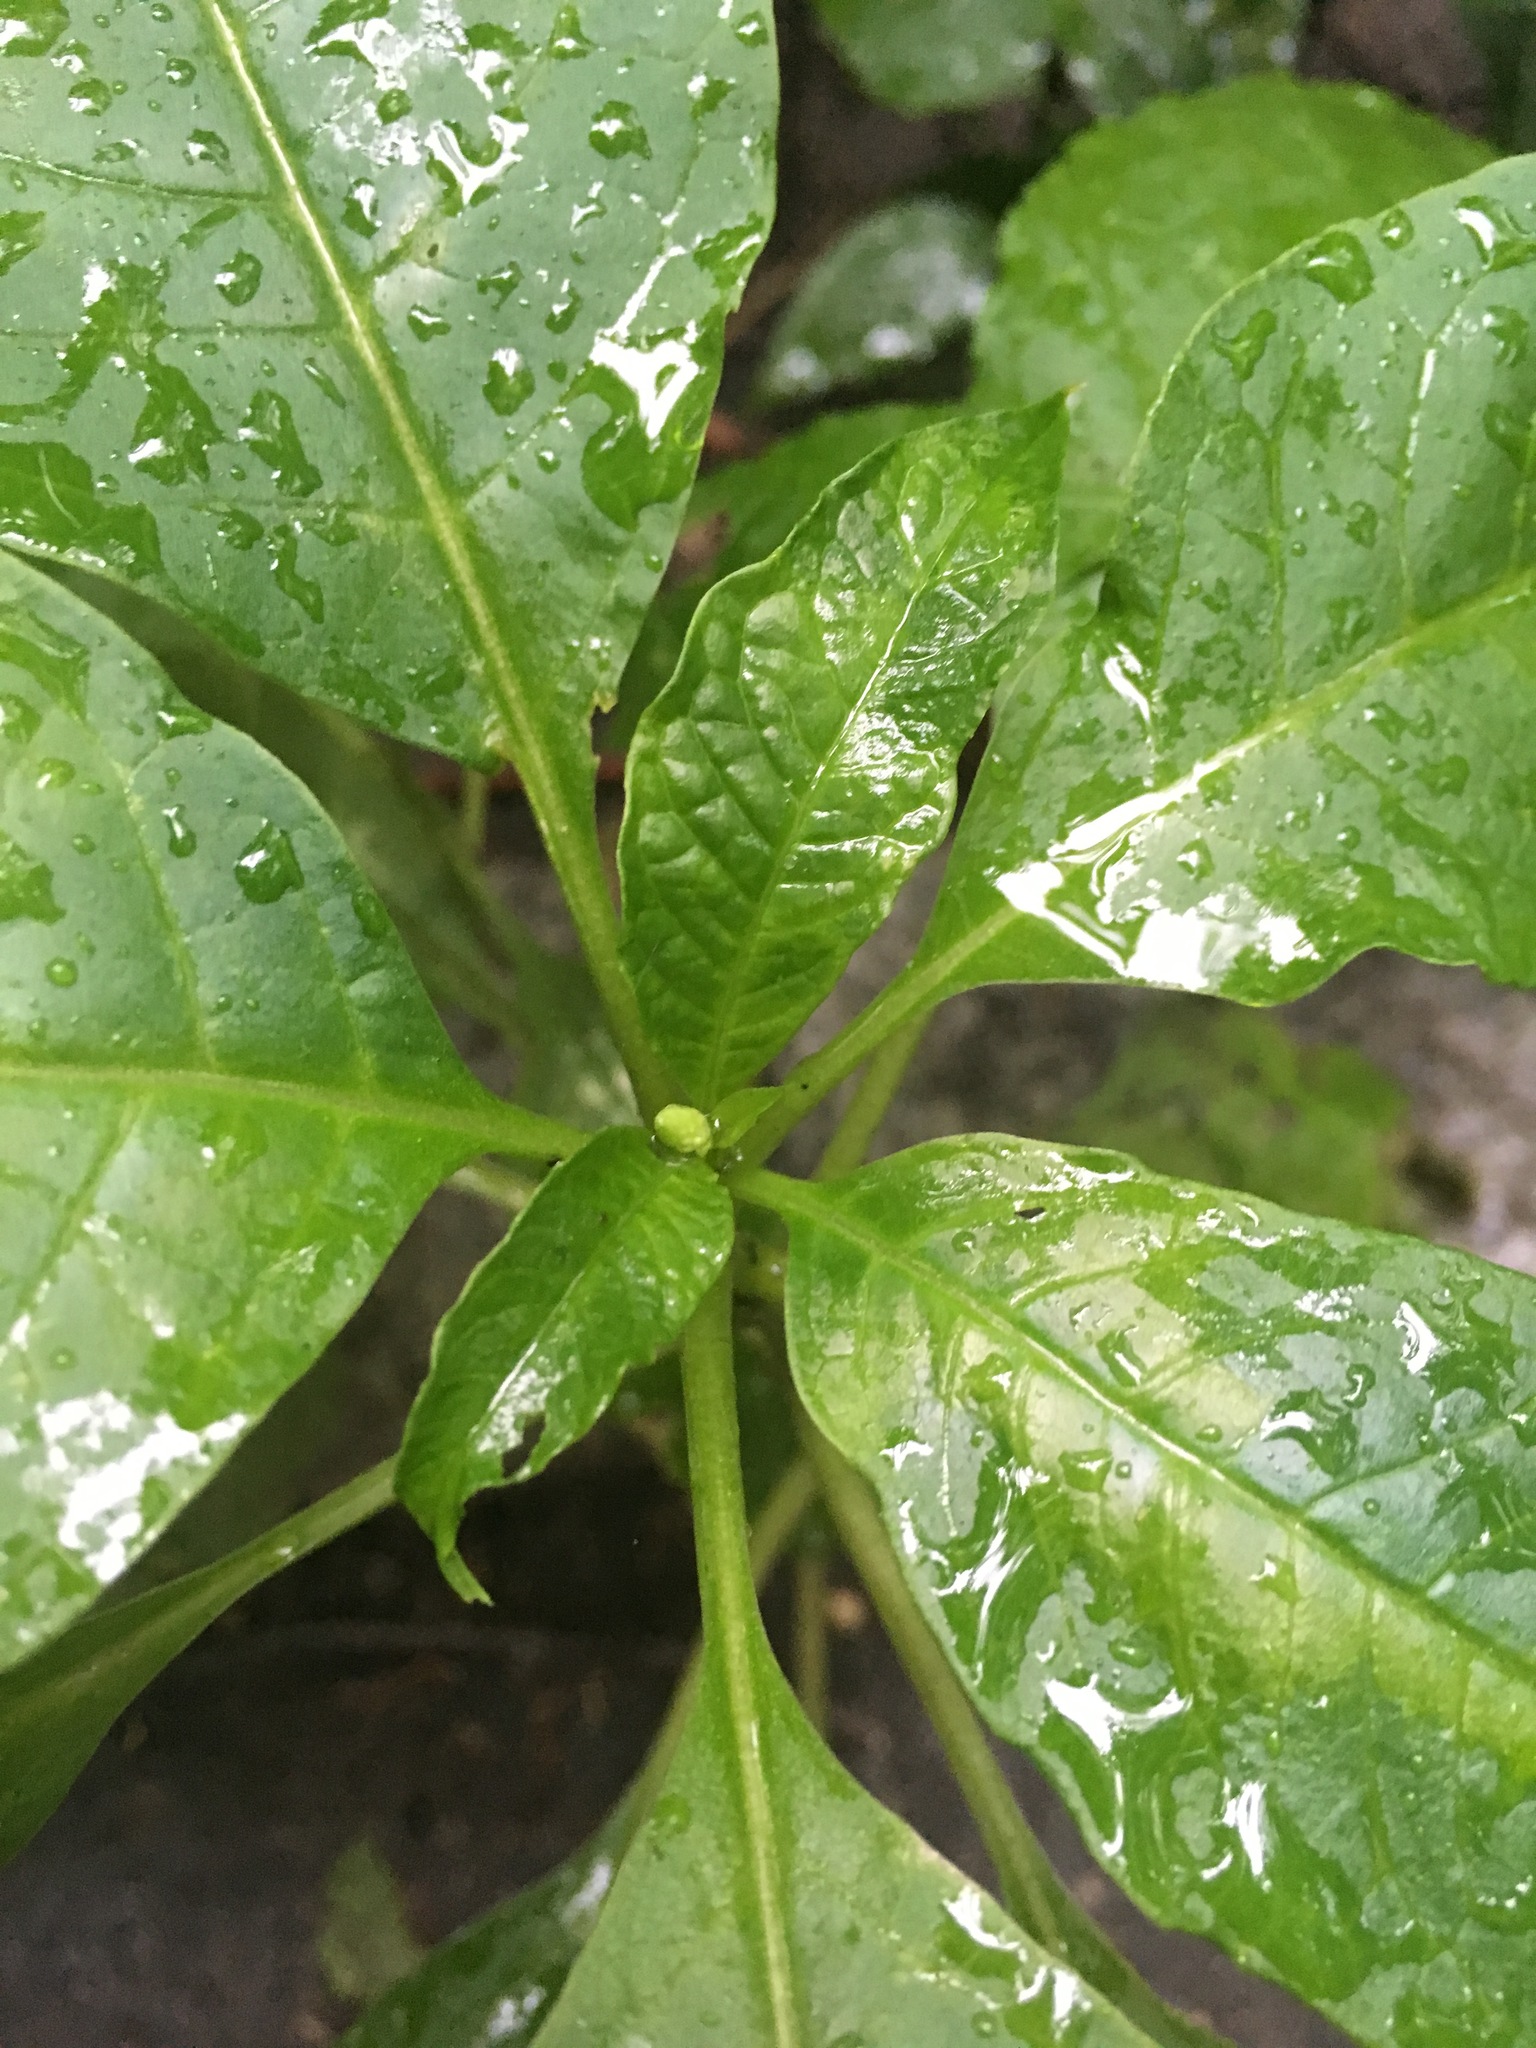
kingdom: Plantae
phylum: Tracheophyta
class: Magnoliopsida
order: Caryophyllales
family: Phytolaccaceae
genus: Phytolacca
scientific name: Phytolacca americana
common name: American pokeweed
